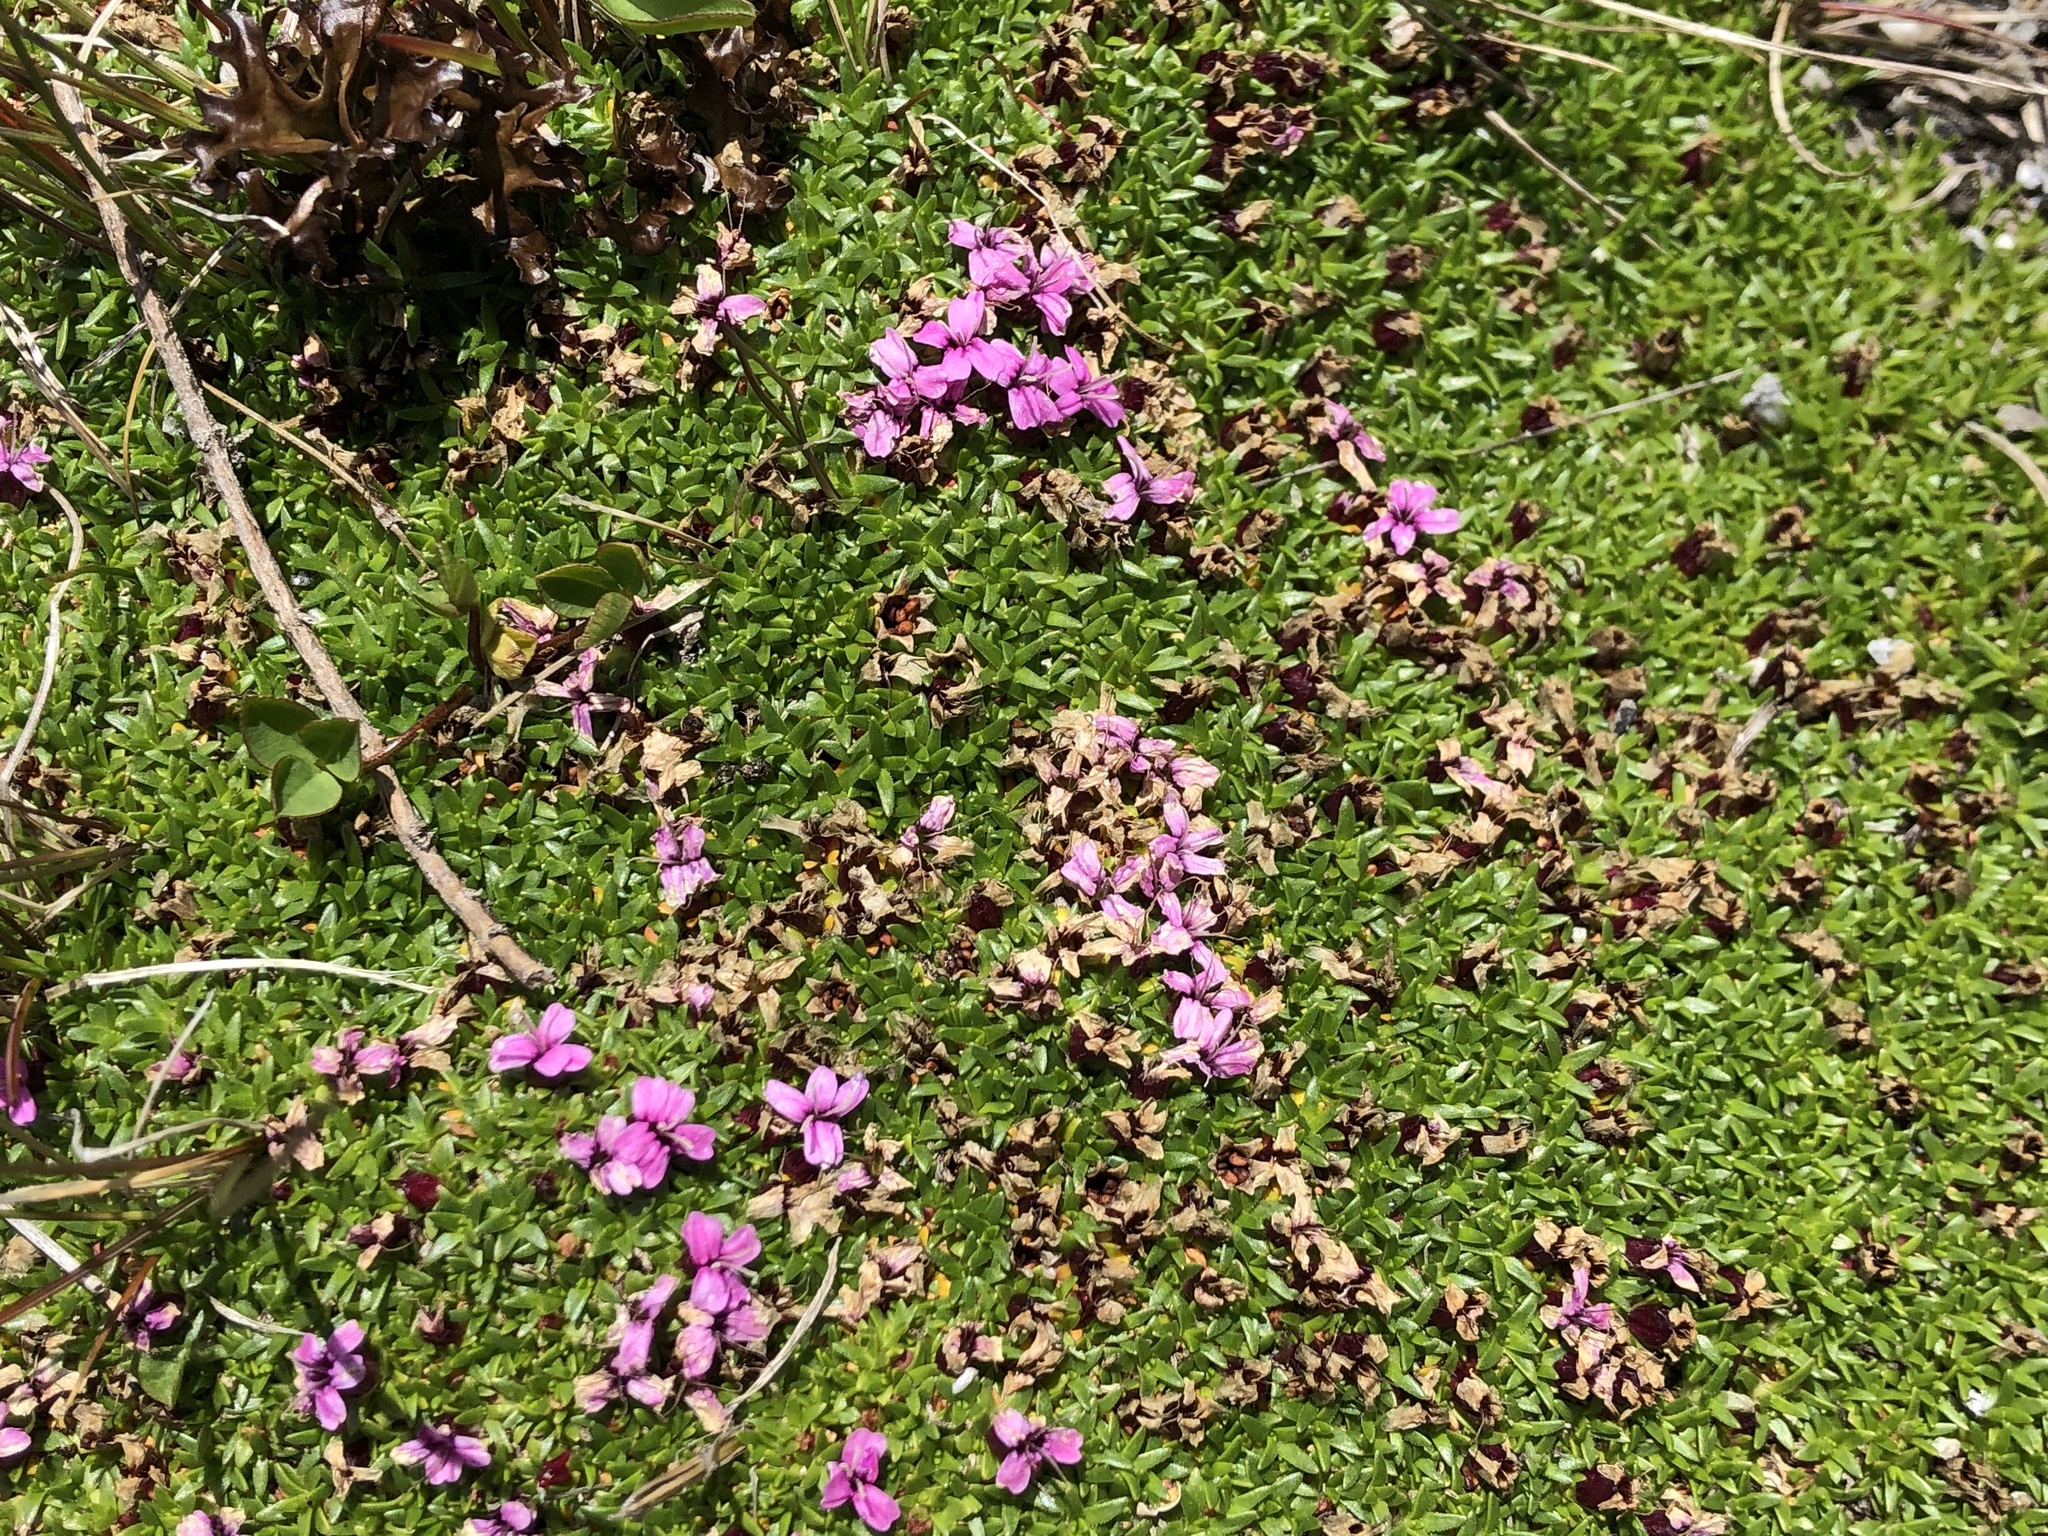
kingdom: Plantae
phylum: Tracheophyta
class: Magnoliopsida
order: Caryophyllales
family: Caryophyllaceae
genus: Silene
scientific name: Silene acaulis
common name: Moss campion
